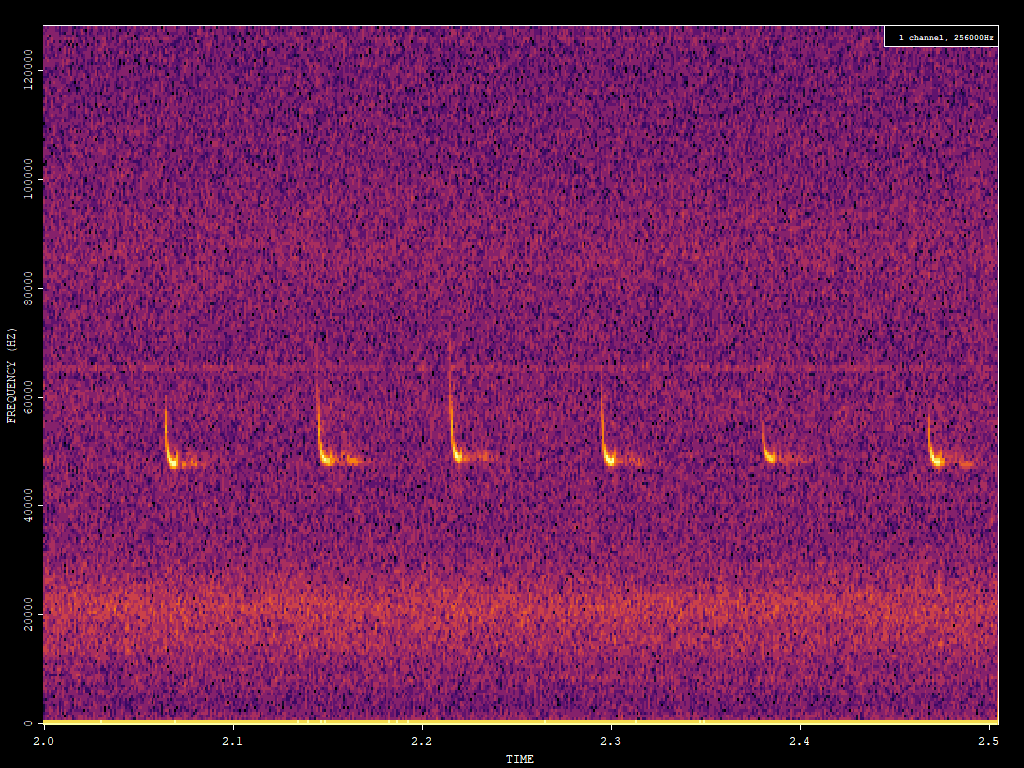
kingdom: Animalia
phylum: Chordata
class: Mammalia
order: Chiroptera
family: Vespertilionidae
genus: Pipistrellus
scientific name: Pipistrellus pipistrellus
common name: Common pipistrelle
